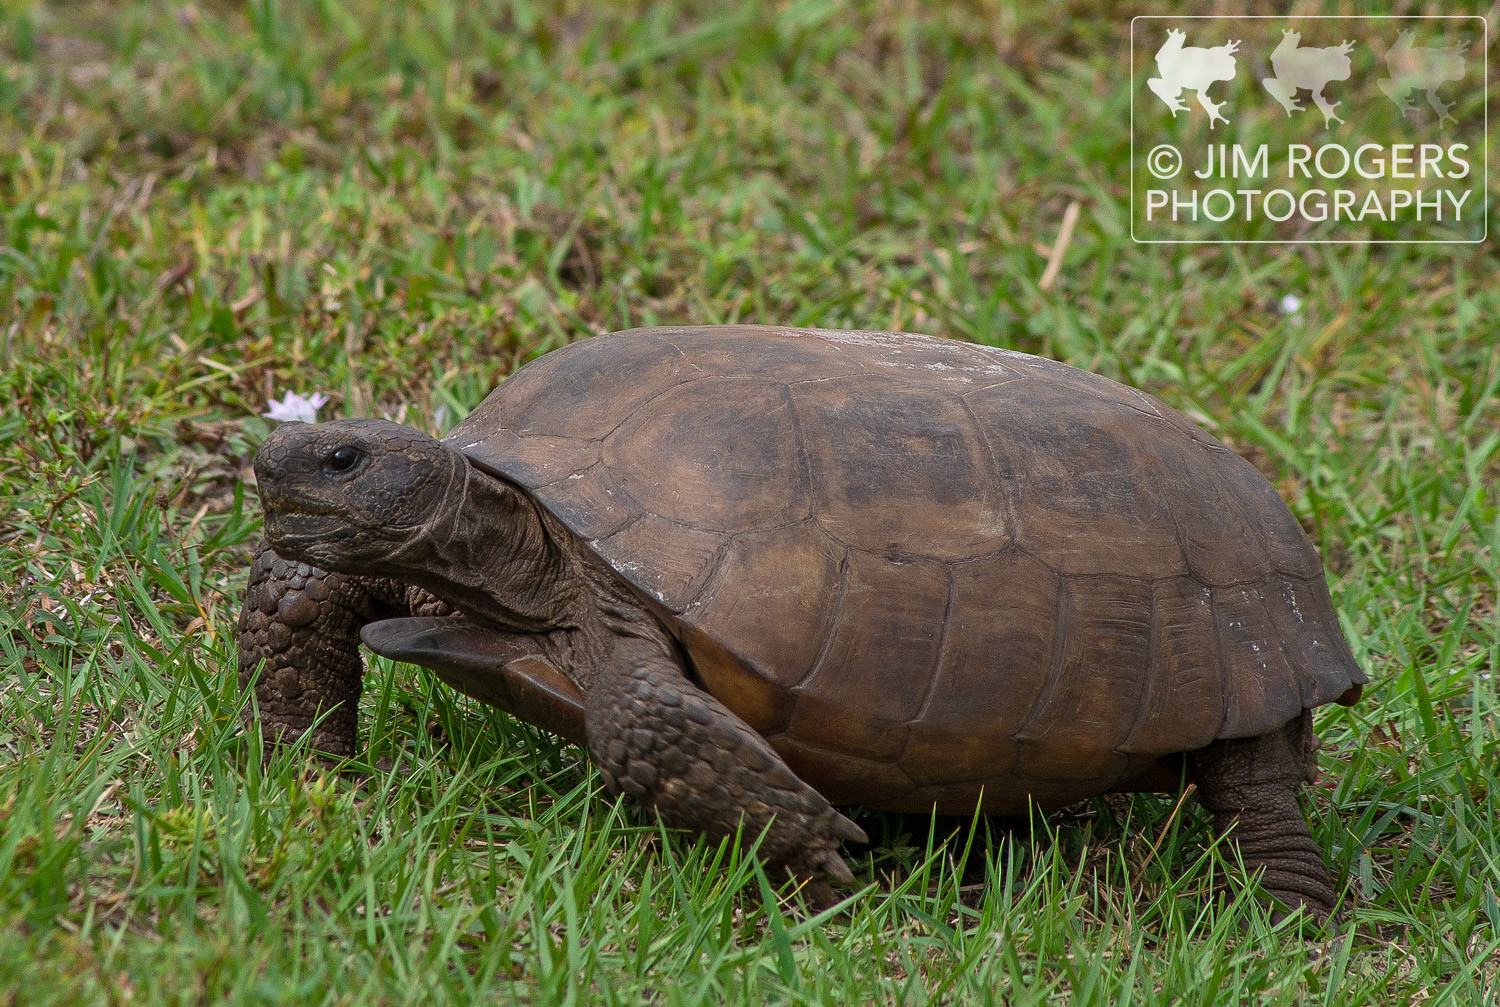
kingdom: Animalia
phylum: Chordata
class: Testudines
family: Testudinidae
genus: Gopherus
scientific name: Gopherus polyphemus
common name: Florida gopher tortoise
